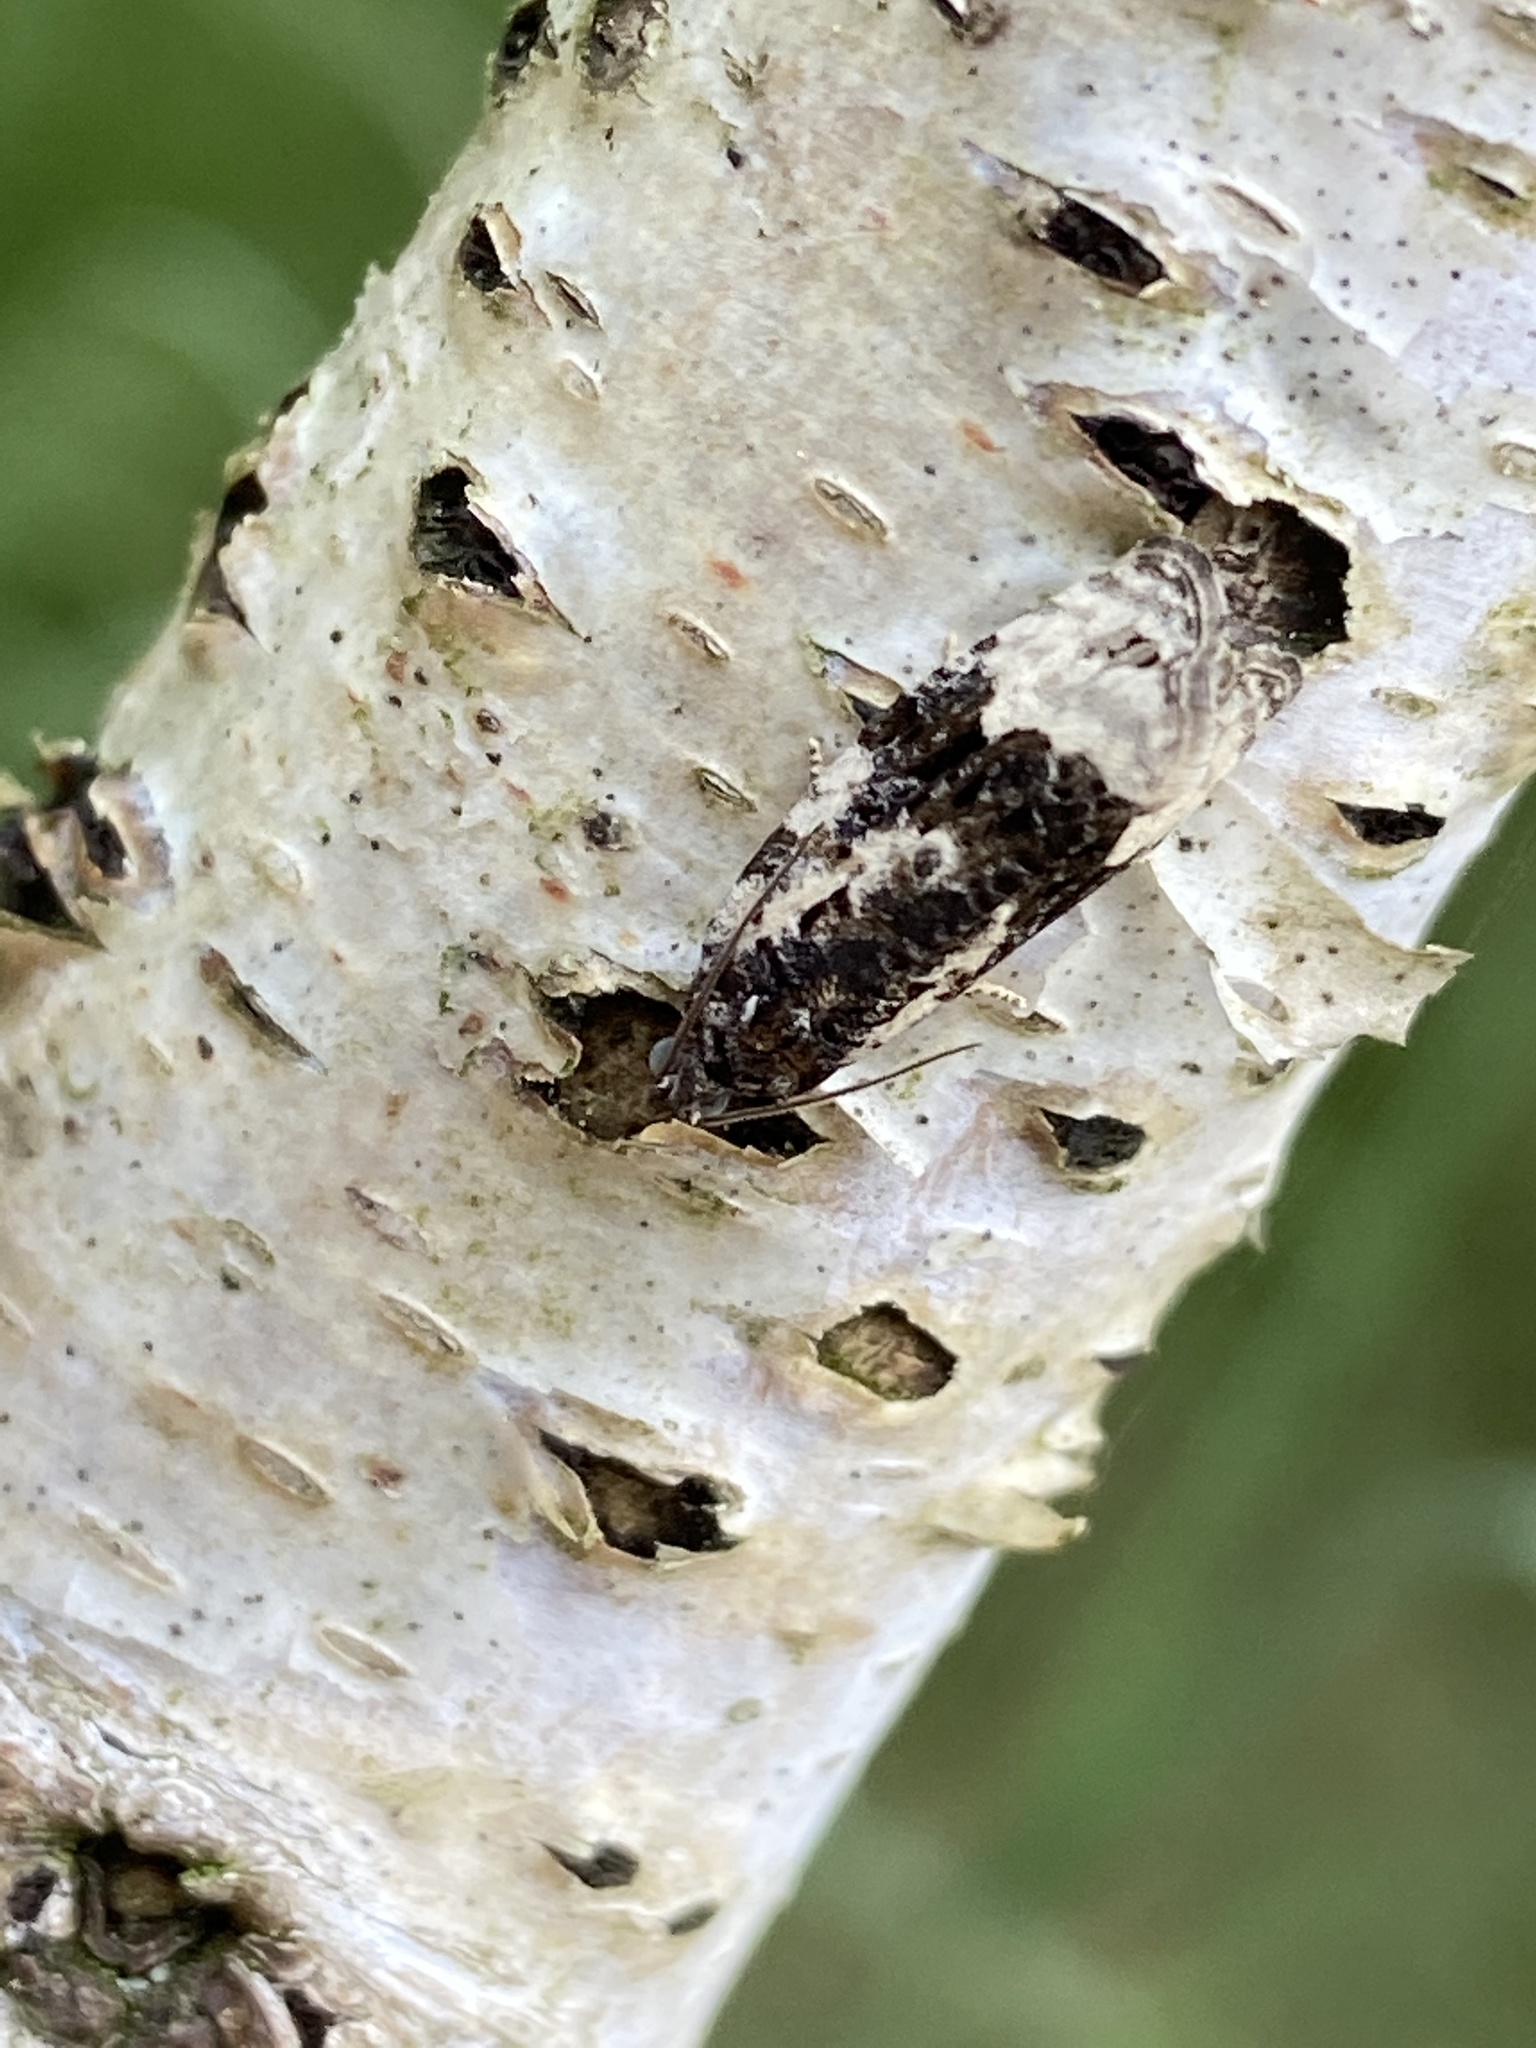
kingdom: Animalia
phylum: Arthropoda
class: Insecta
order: Lepidoptera
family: Tortricidae
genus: Apotomis
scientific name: Apotomis turbidana
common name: White-shouldered marble
